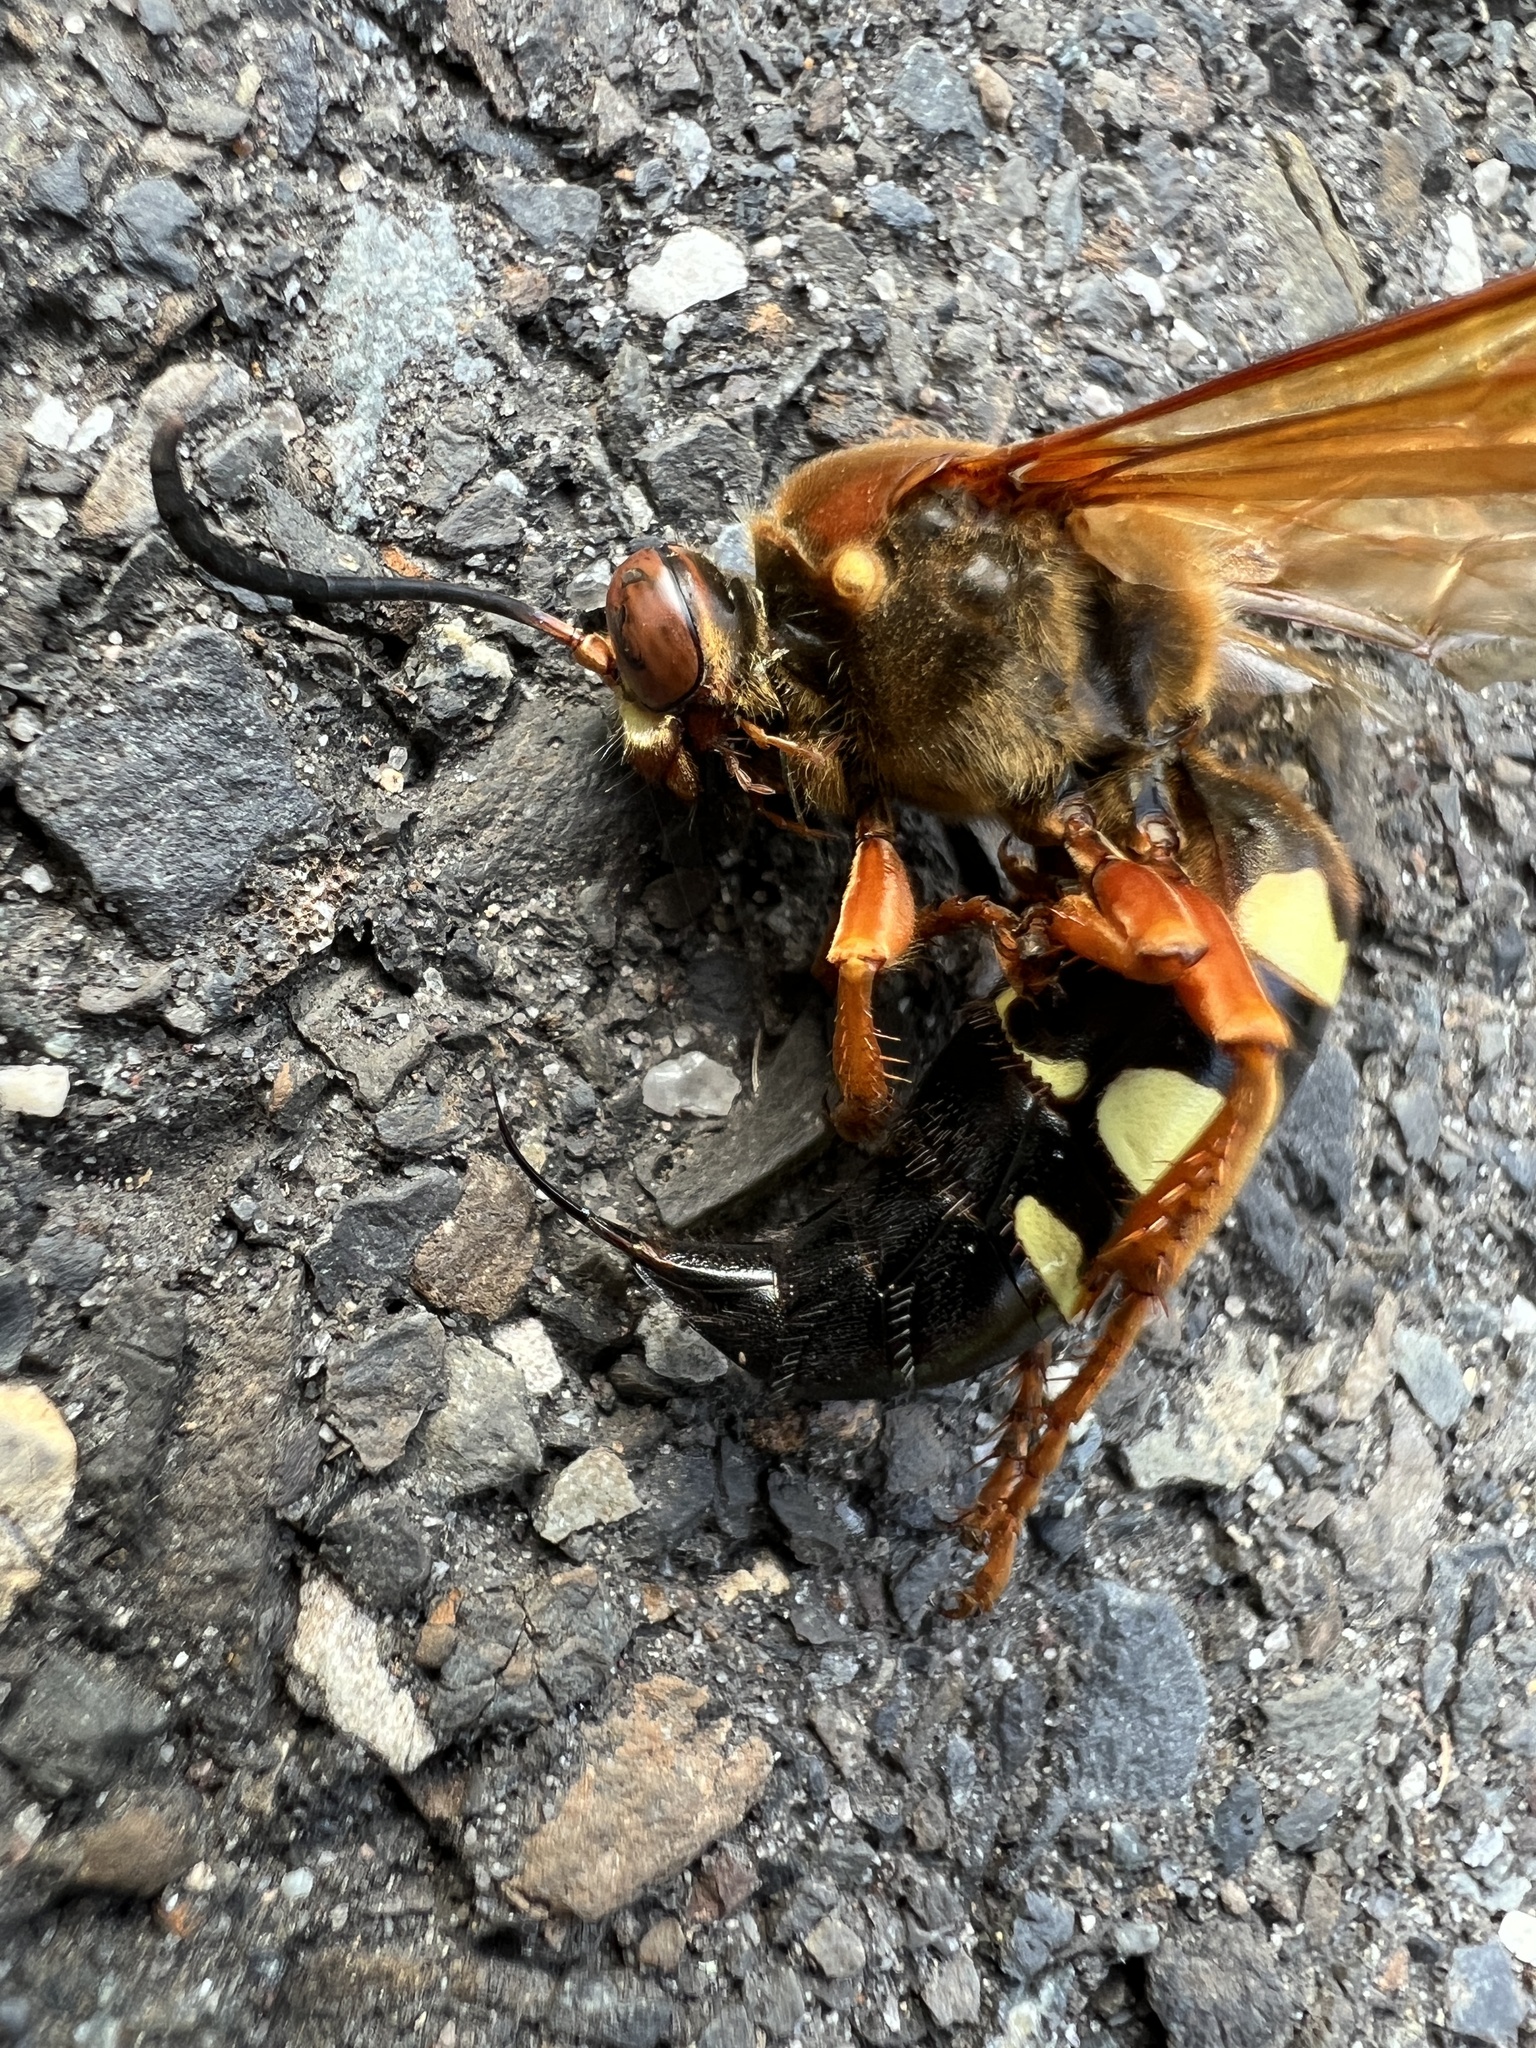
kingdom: Animalia
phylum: Arthropoda
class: Insecta
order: Hymenoptera
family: Crabronidae
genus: Sphecius
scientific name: Sphecius speciosus
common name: Cicada killer
